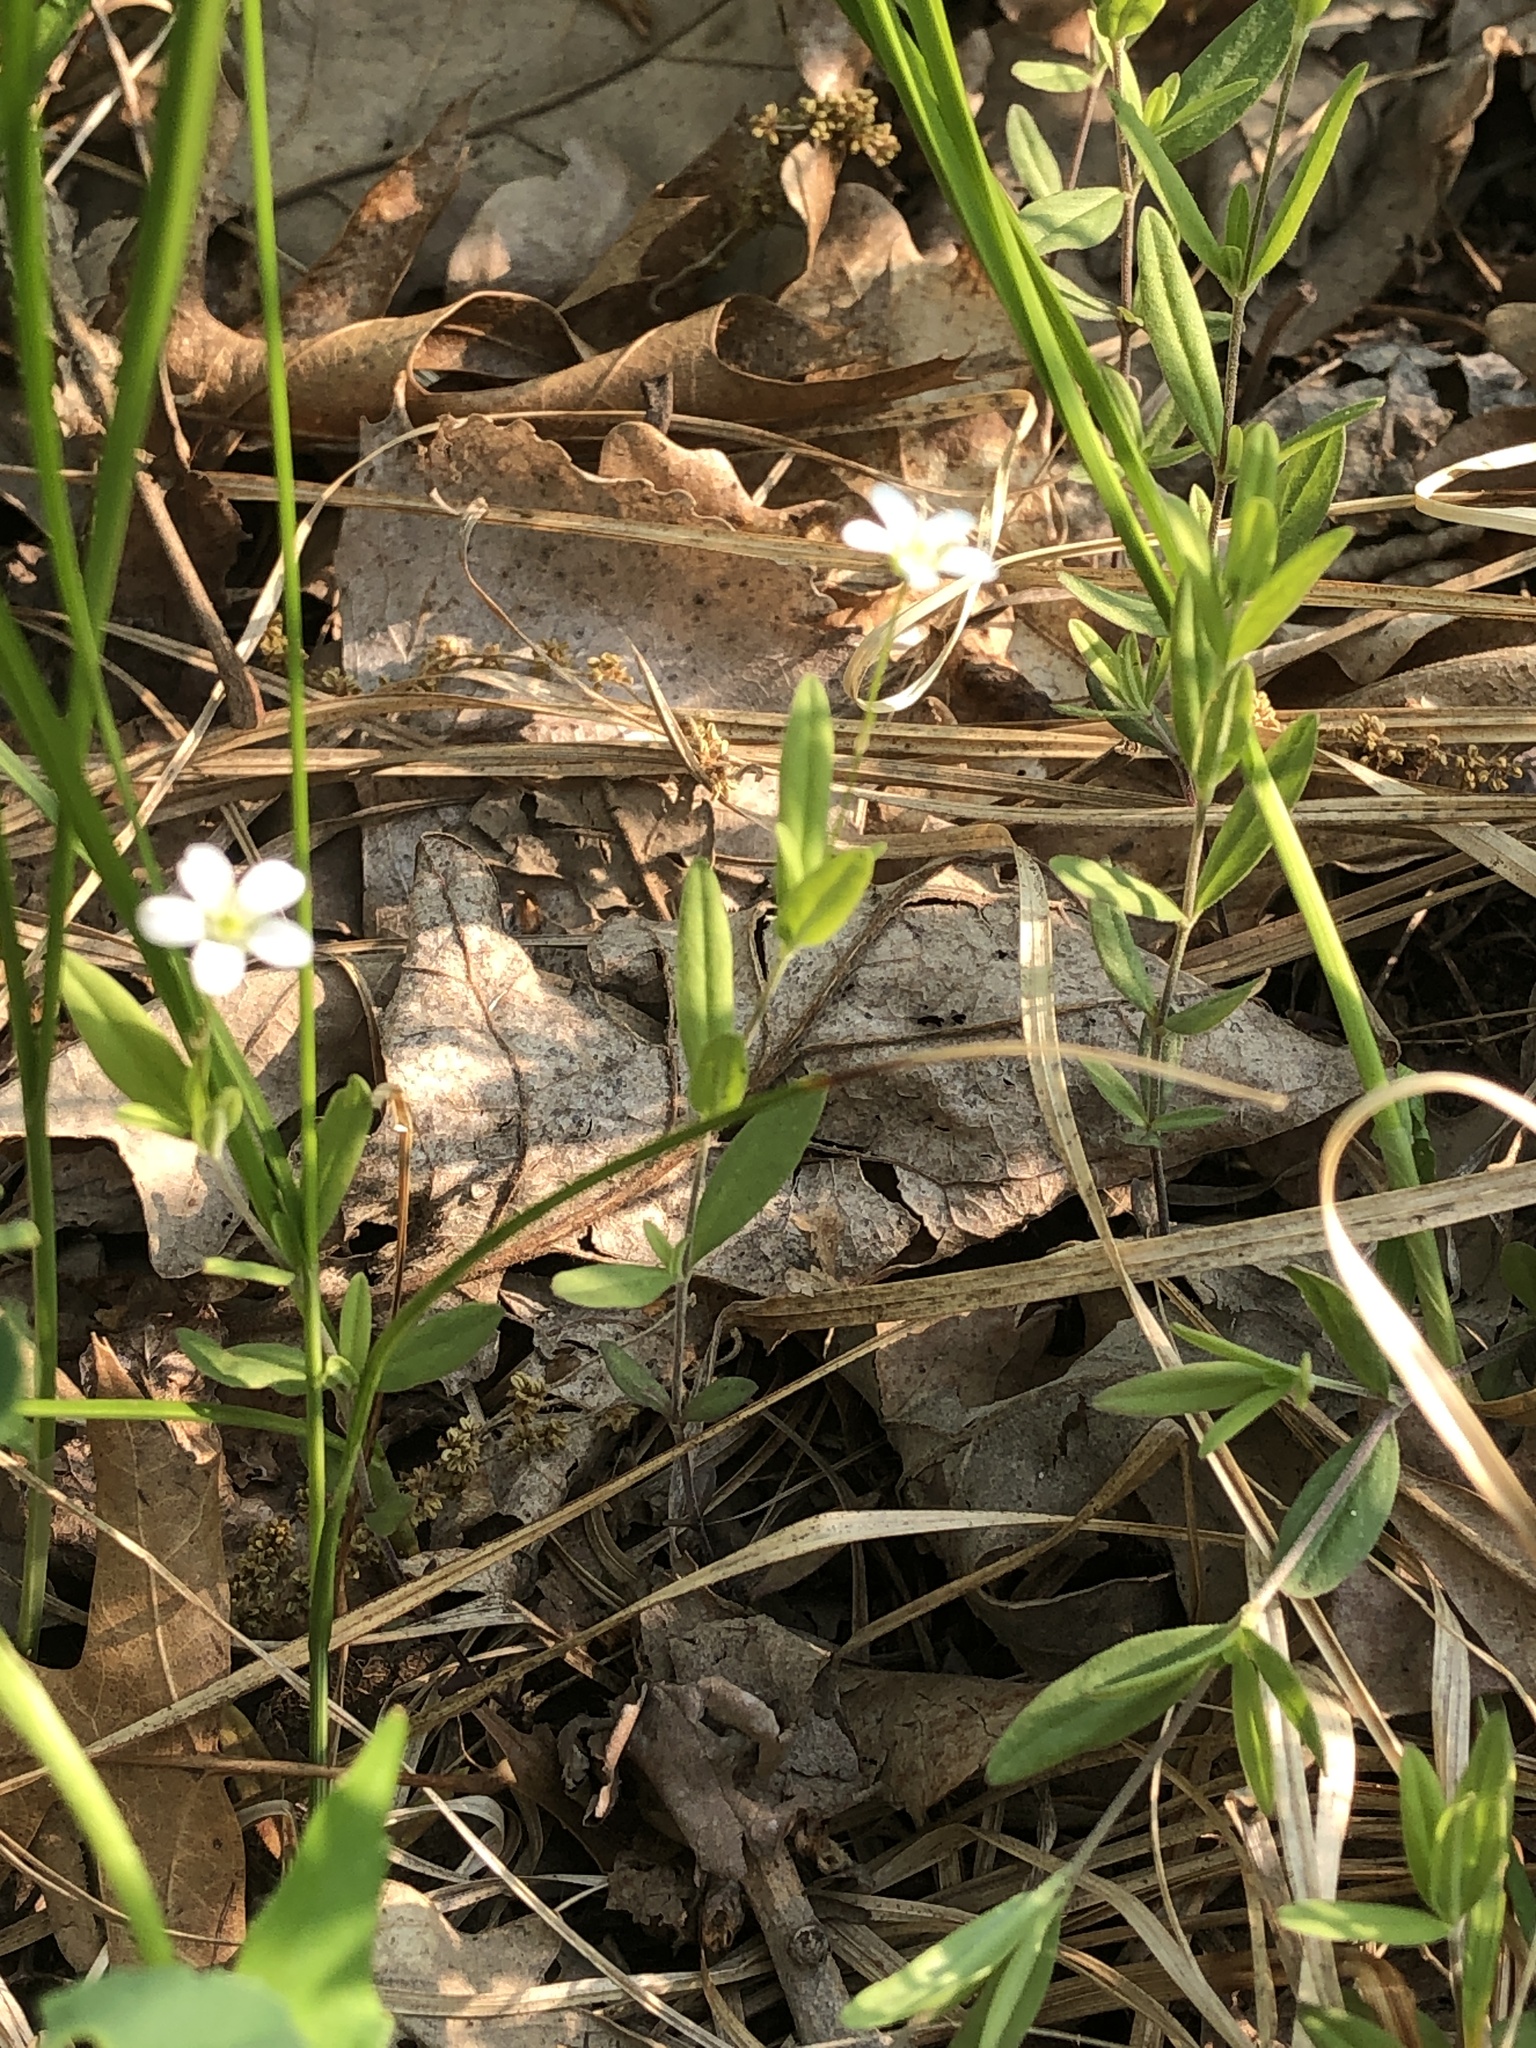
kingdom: Plantae
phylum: Tracheophyta
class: Magnoliopsida
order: Caryophyllales
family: Caryophyllaceae
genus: Moehringia
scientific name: Moehringia lateriflora
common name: Blunt-leaved sandwort
